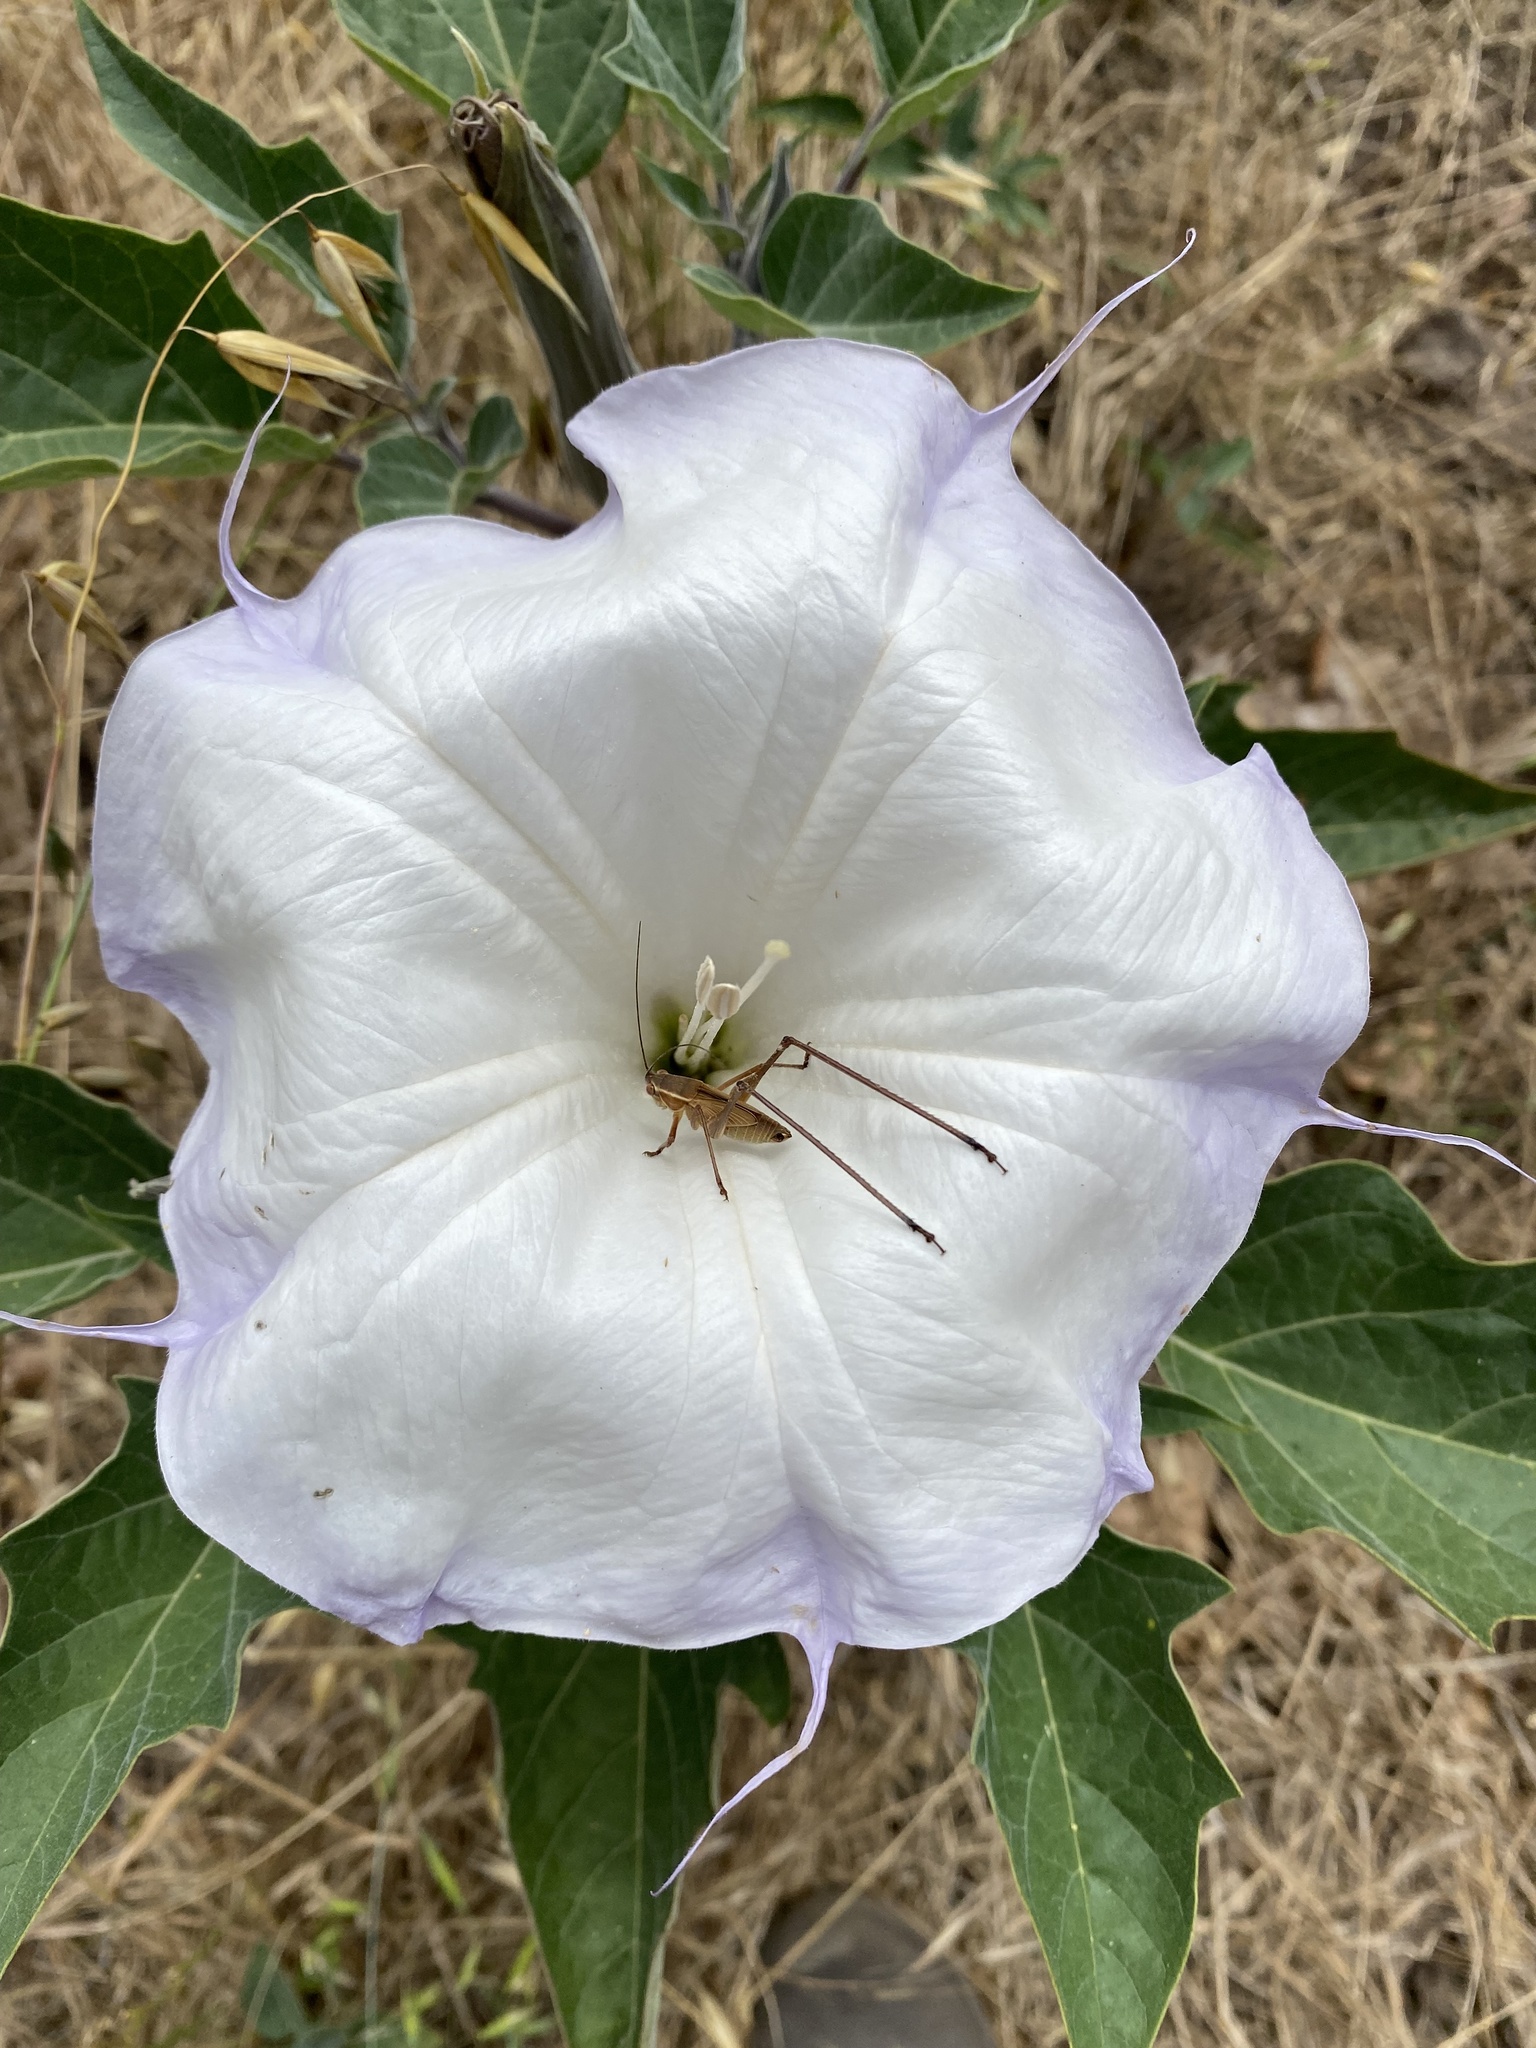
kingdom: Plantae
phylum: Tracheophyta
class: Magnoliopsida
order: Solanales
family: Solanaceae
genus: Datura
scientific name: Datura wrightii
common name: Sacred thorn-apple
